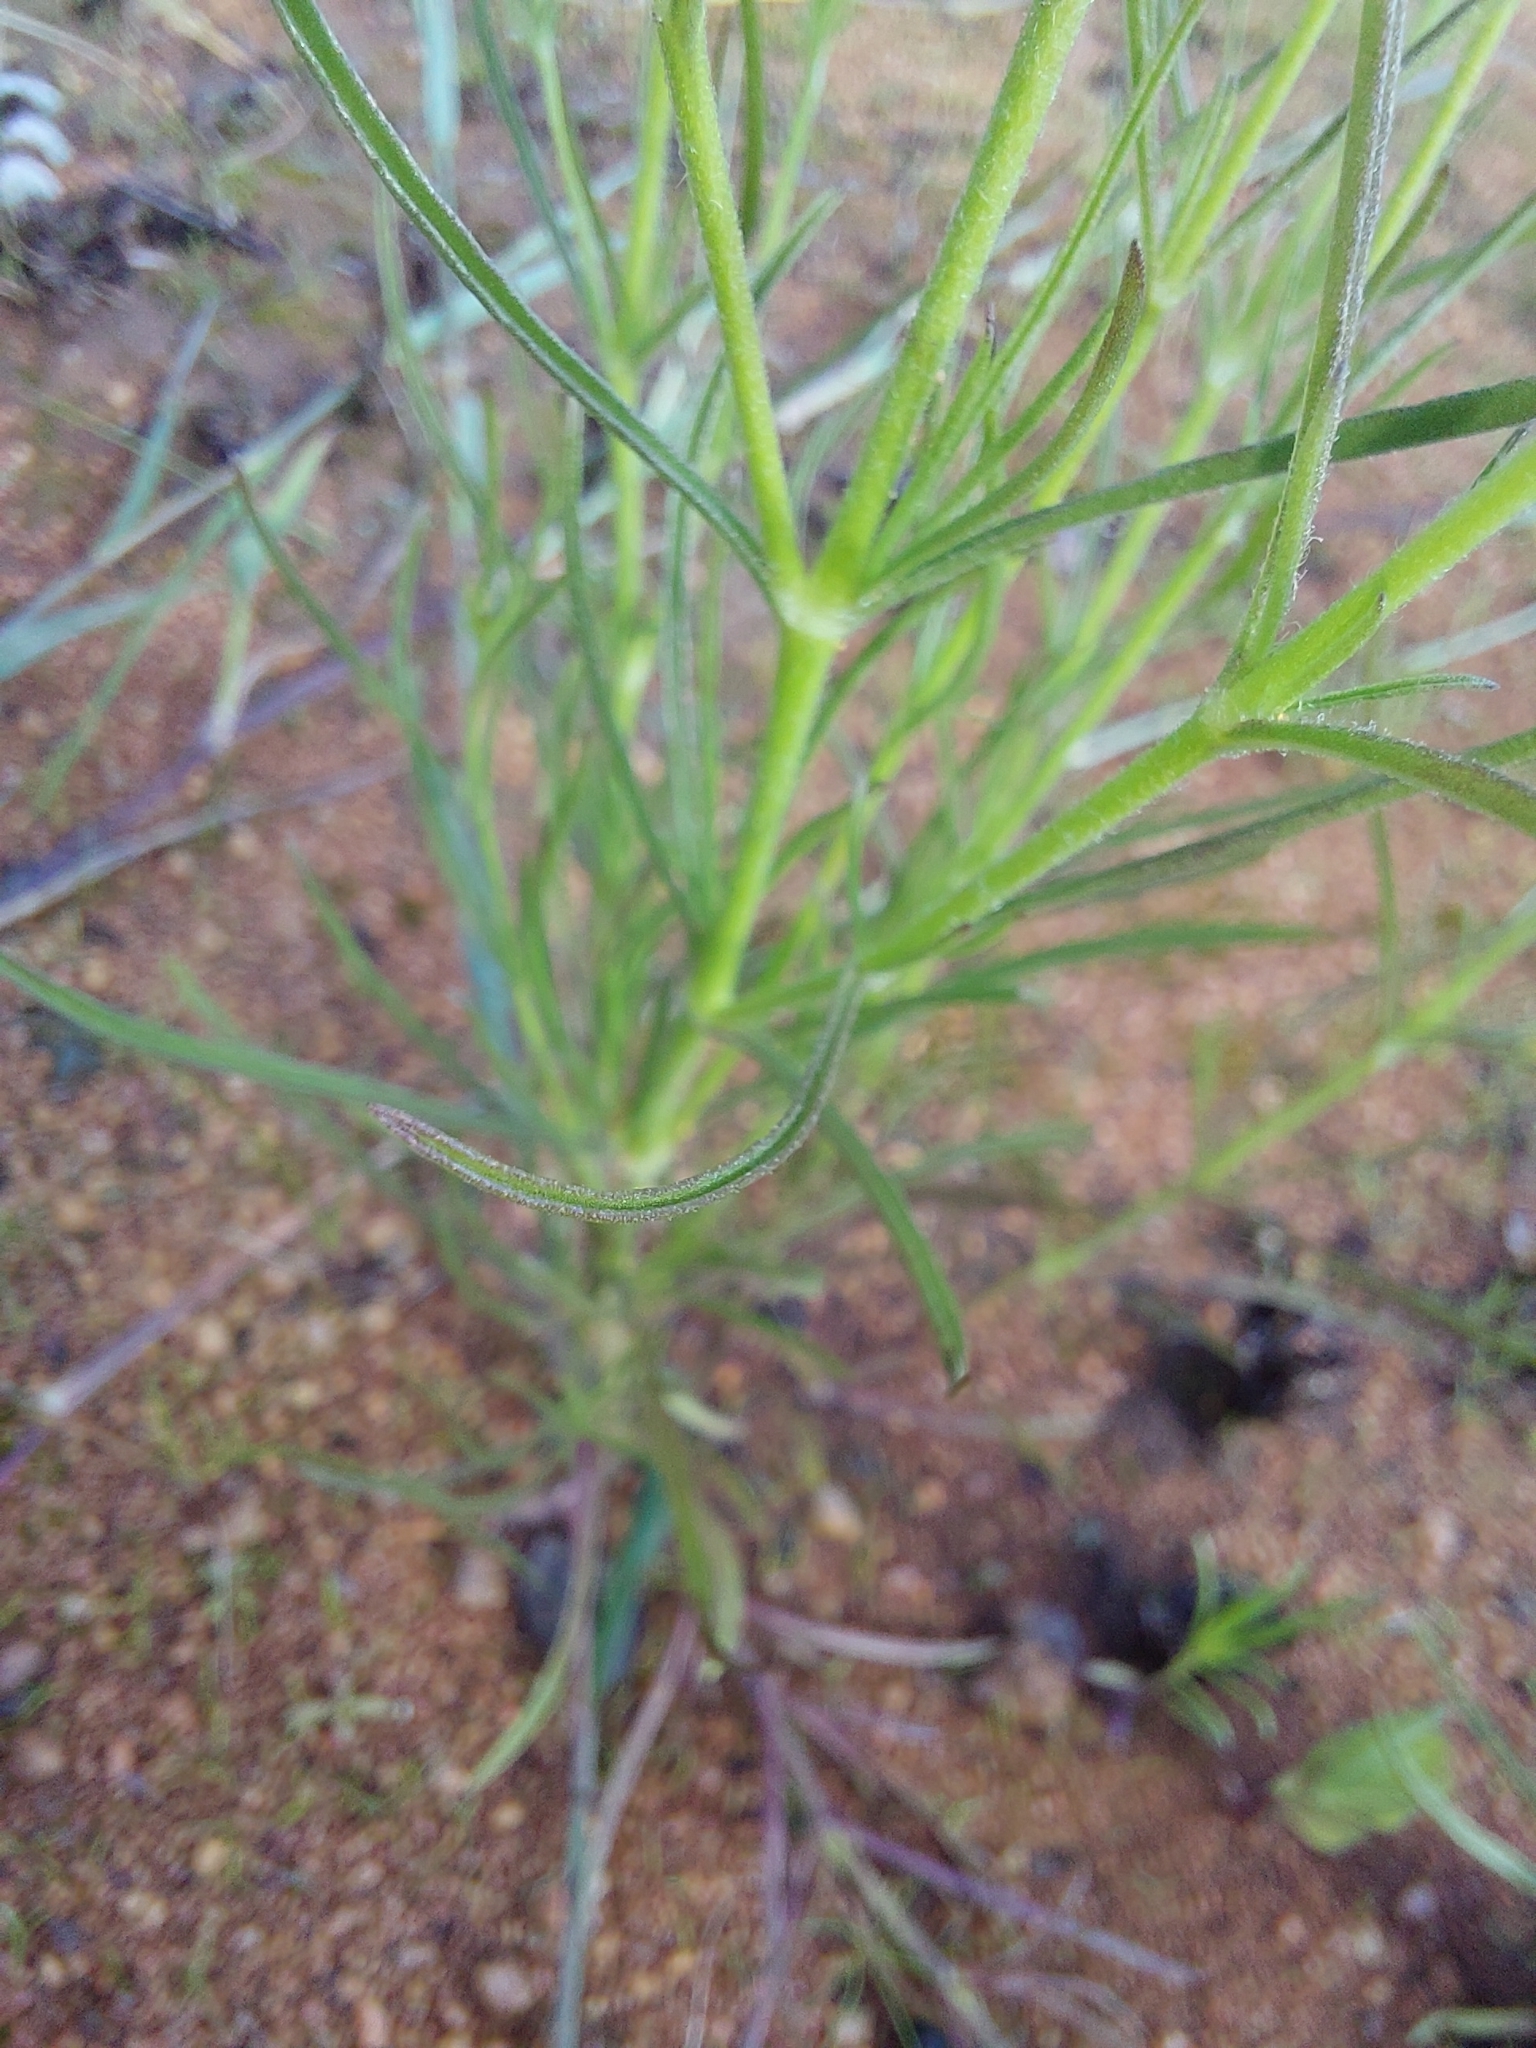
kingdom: Plantae
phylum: Tracheophyta
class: Magnoliopsida
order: Vahliales
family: Vahliaceae
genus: Vahlia
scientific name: Vahlia capensis
